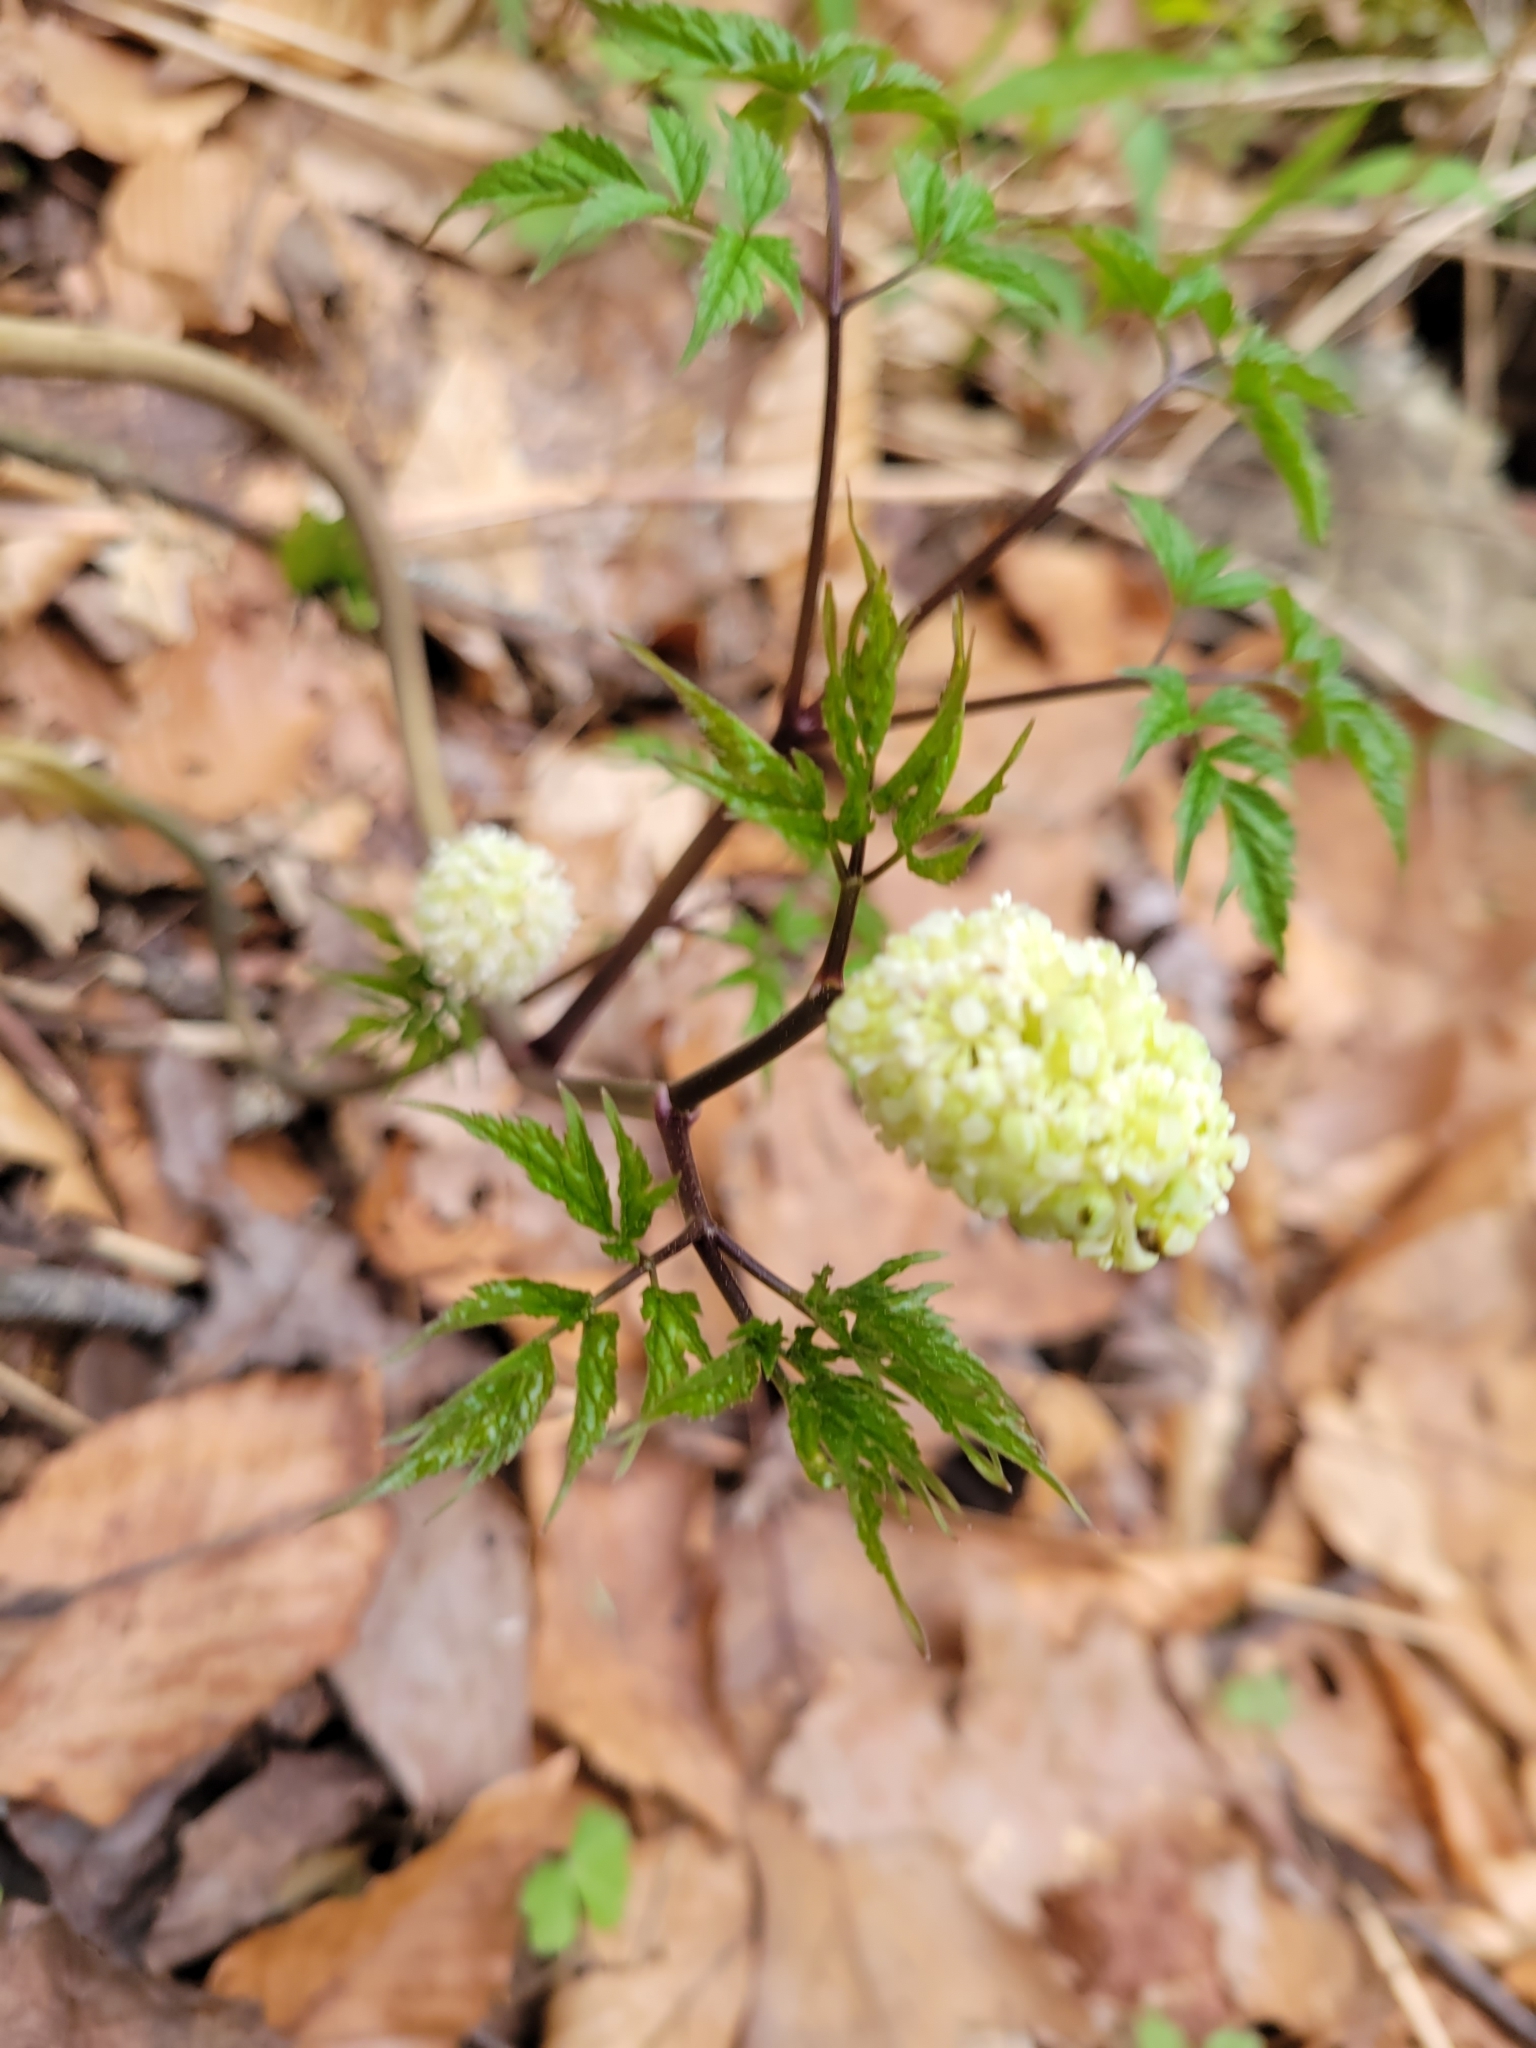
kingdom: Plantae
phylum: Tracheophyta
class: Magnoliopsida
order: Ranunculales
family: Ranunculaceae
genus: Actaea
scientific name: Actaea pachypoda
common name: Doll's-eyes
